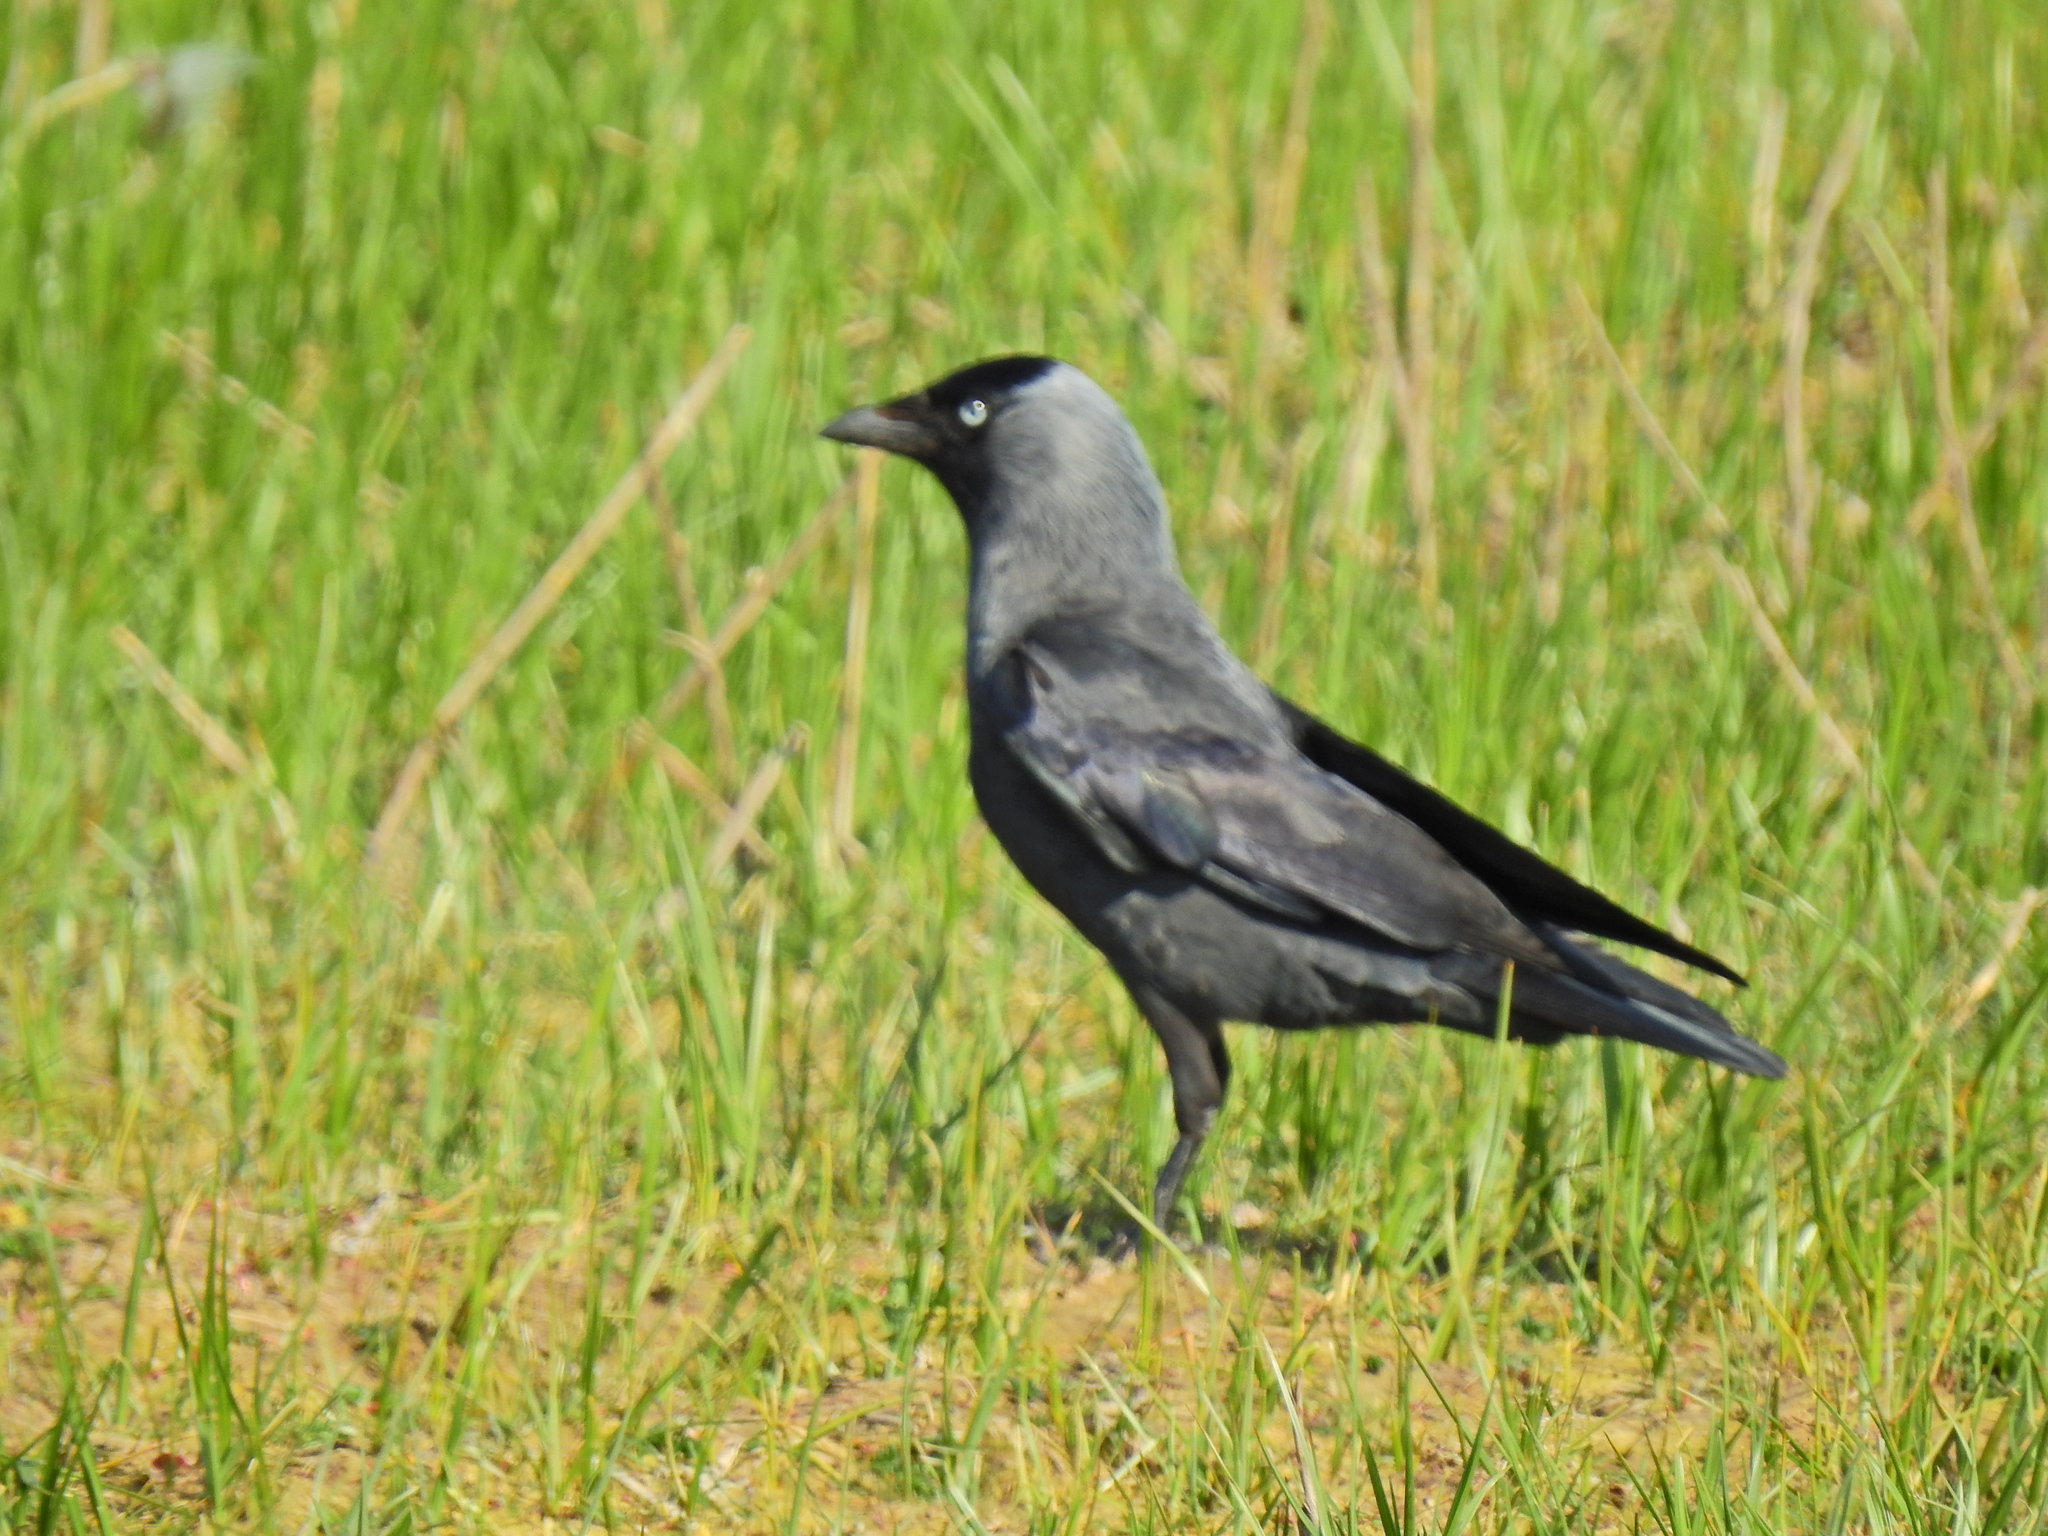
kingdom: Animalia
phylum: Chordata
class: Aves
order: Passeriformes
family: Corvidae
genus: Coloeus
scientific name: Coloeus monedula
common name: Western jackdaw
